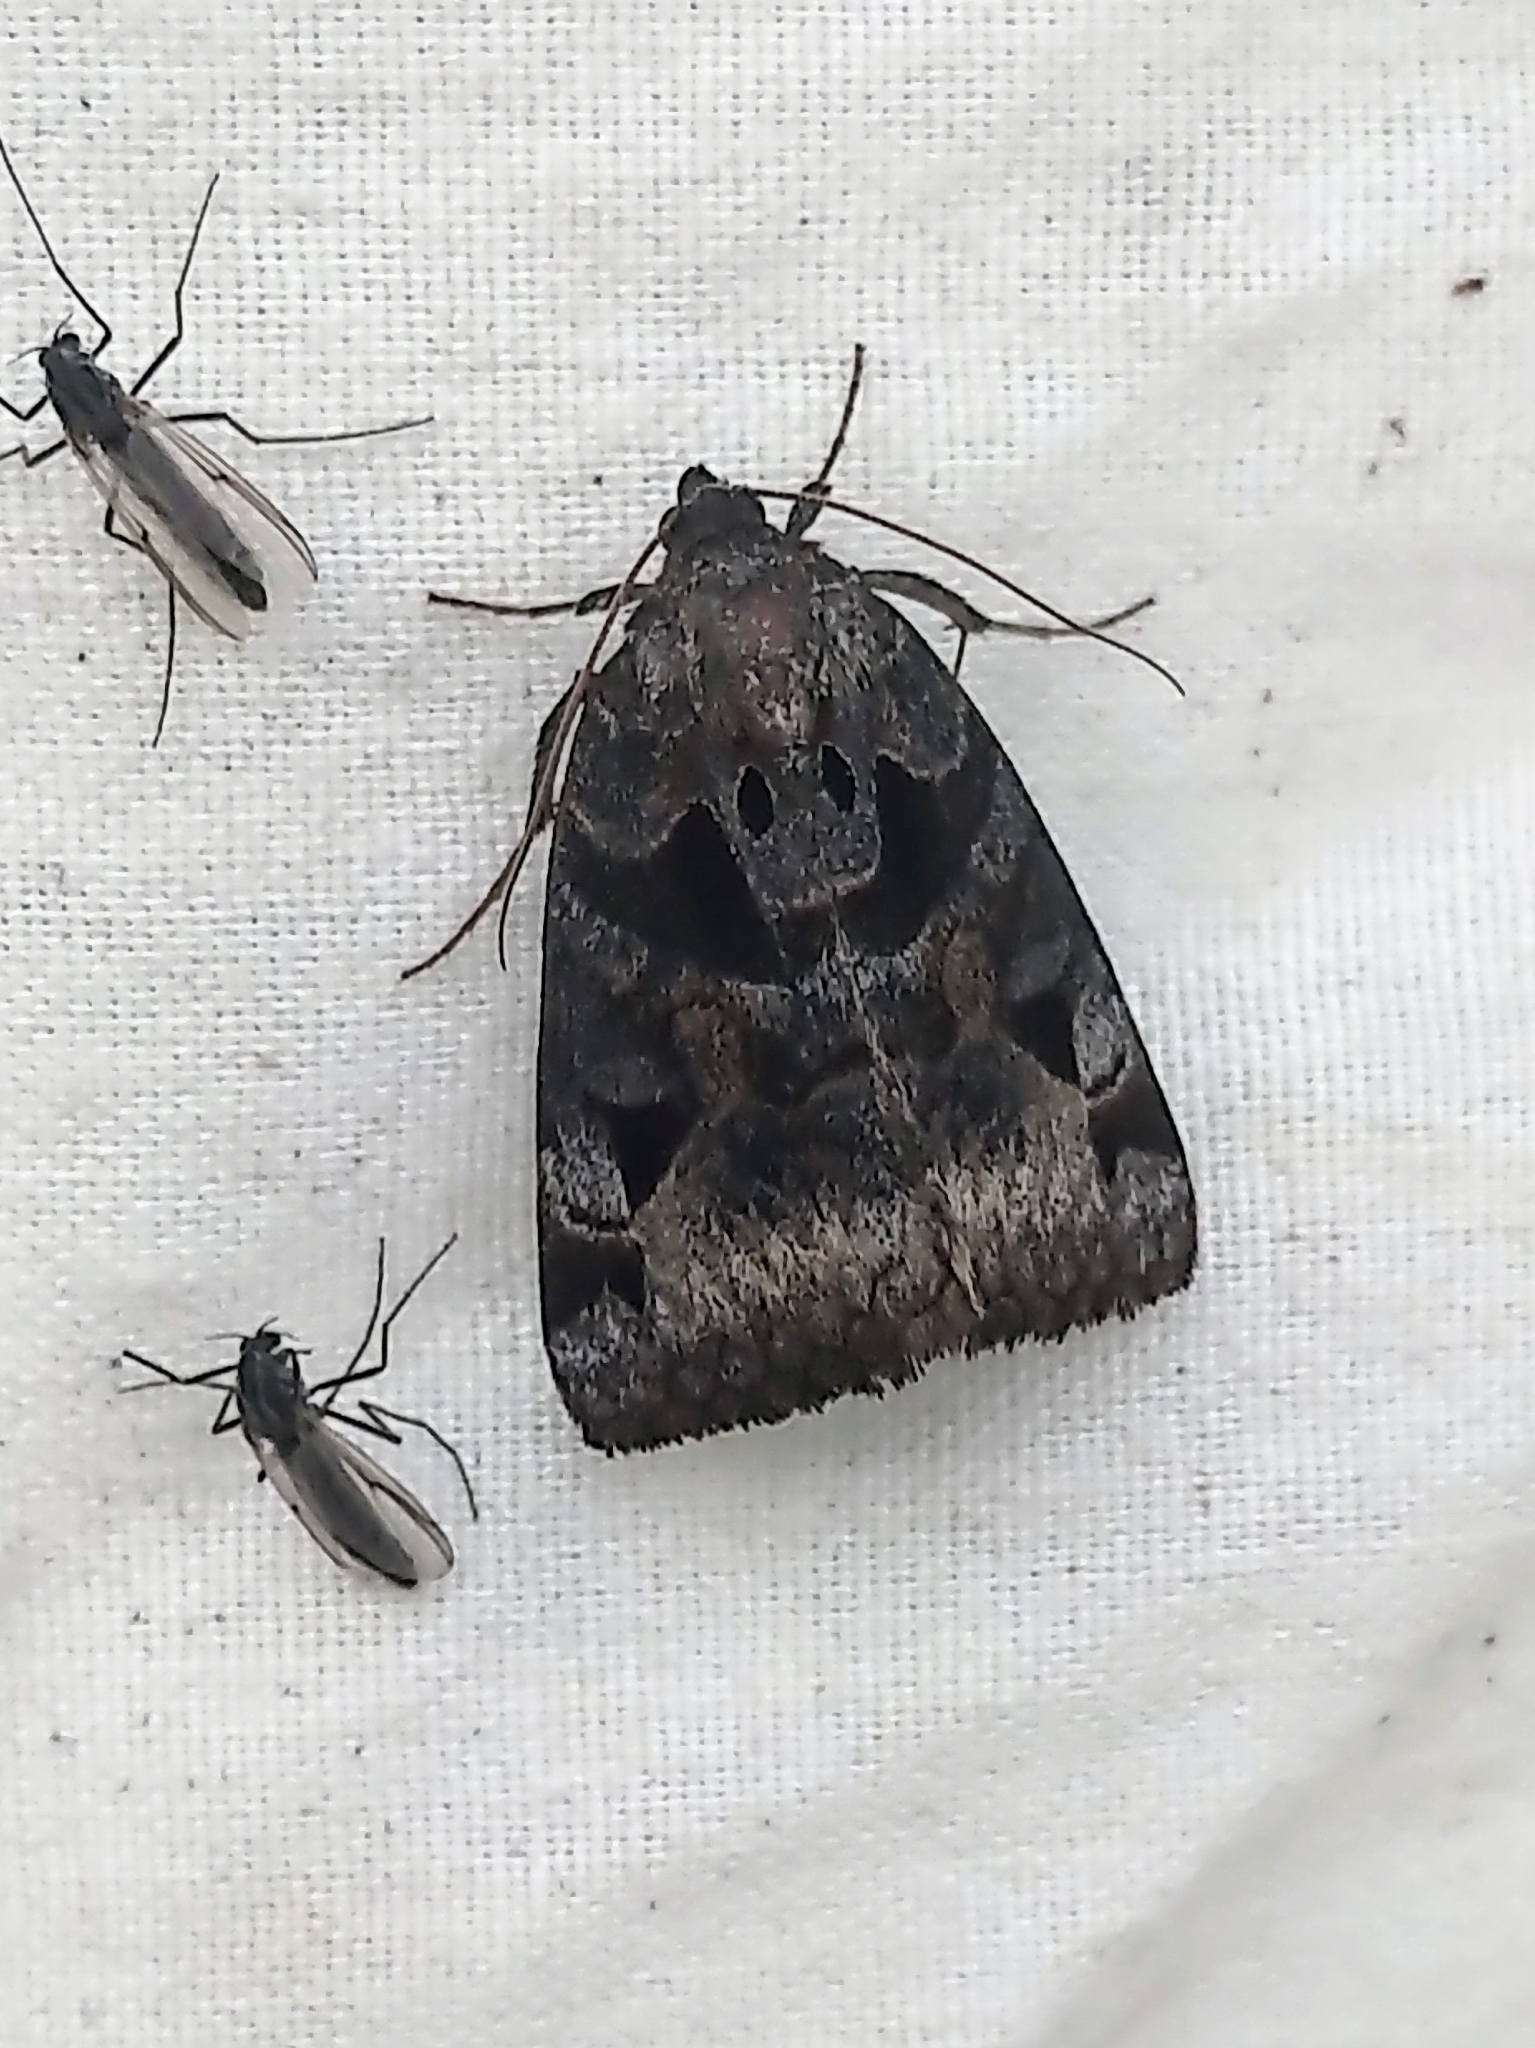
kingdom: Animalia
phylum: Arthropoda
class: Insecta
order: Lepidoptera
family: Erebidae
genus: Euclidia
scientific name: Euclidia cuspidea
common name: Toothed somberwing
